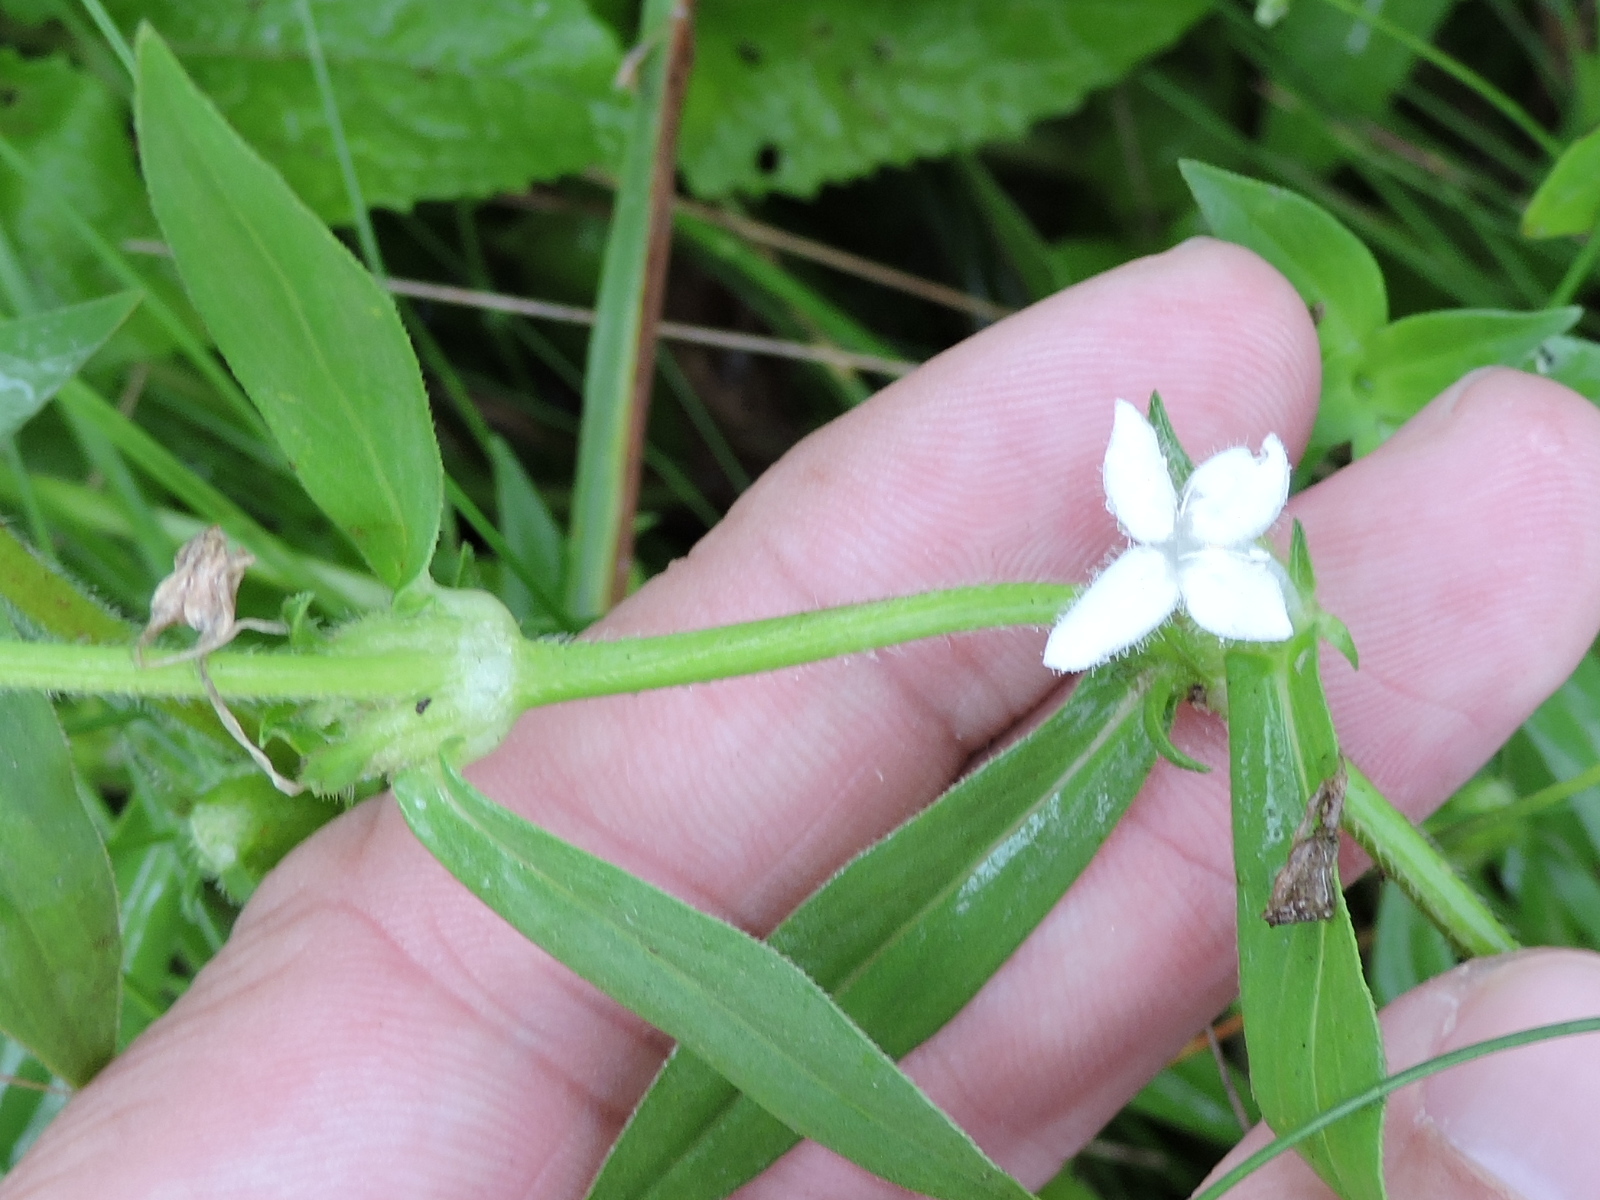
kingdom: Plantae
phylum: Tracheophyta
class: Magnoliopsida
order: Gentianales
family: Rubiaceae
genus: Diodia
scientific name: Diodia virginiana
